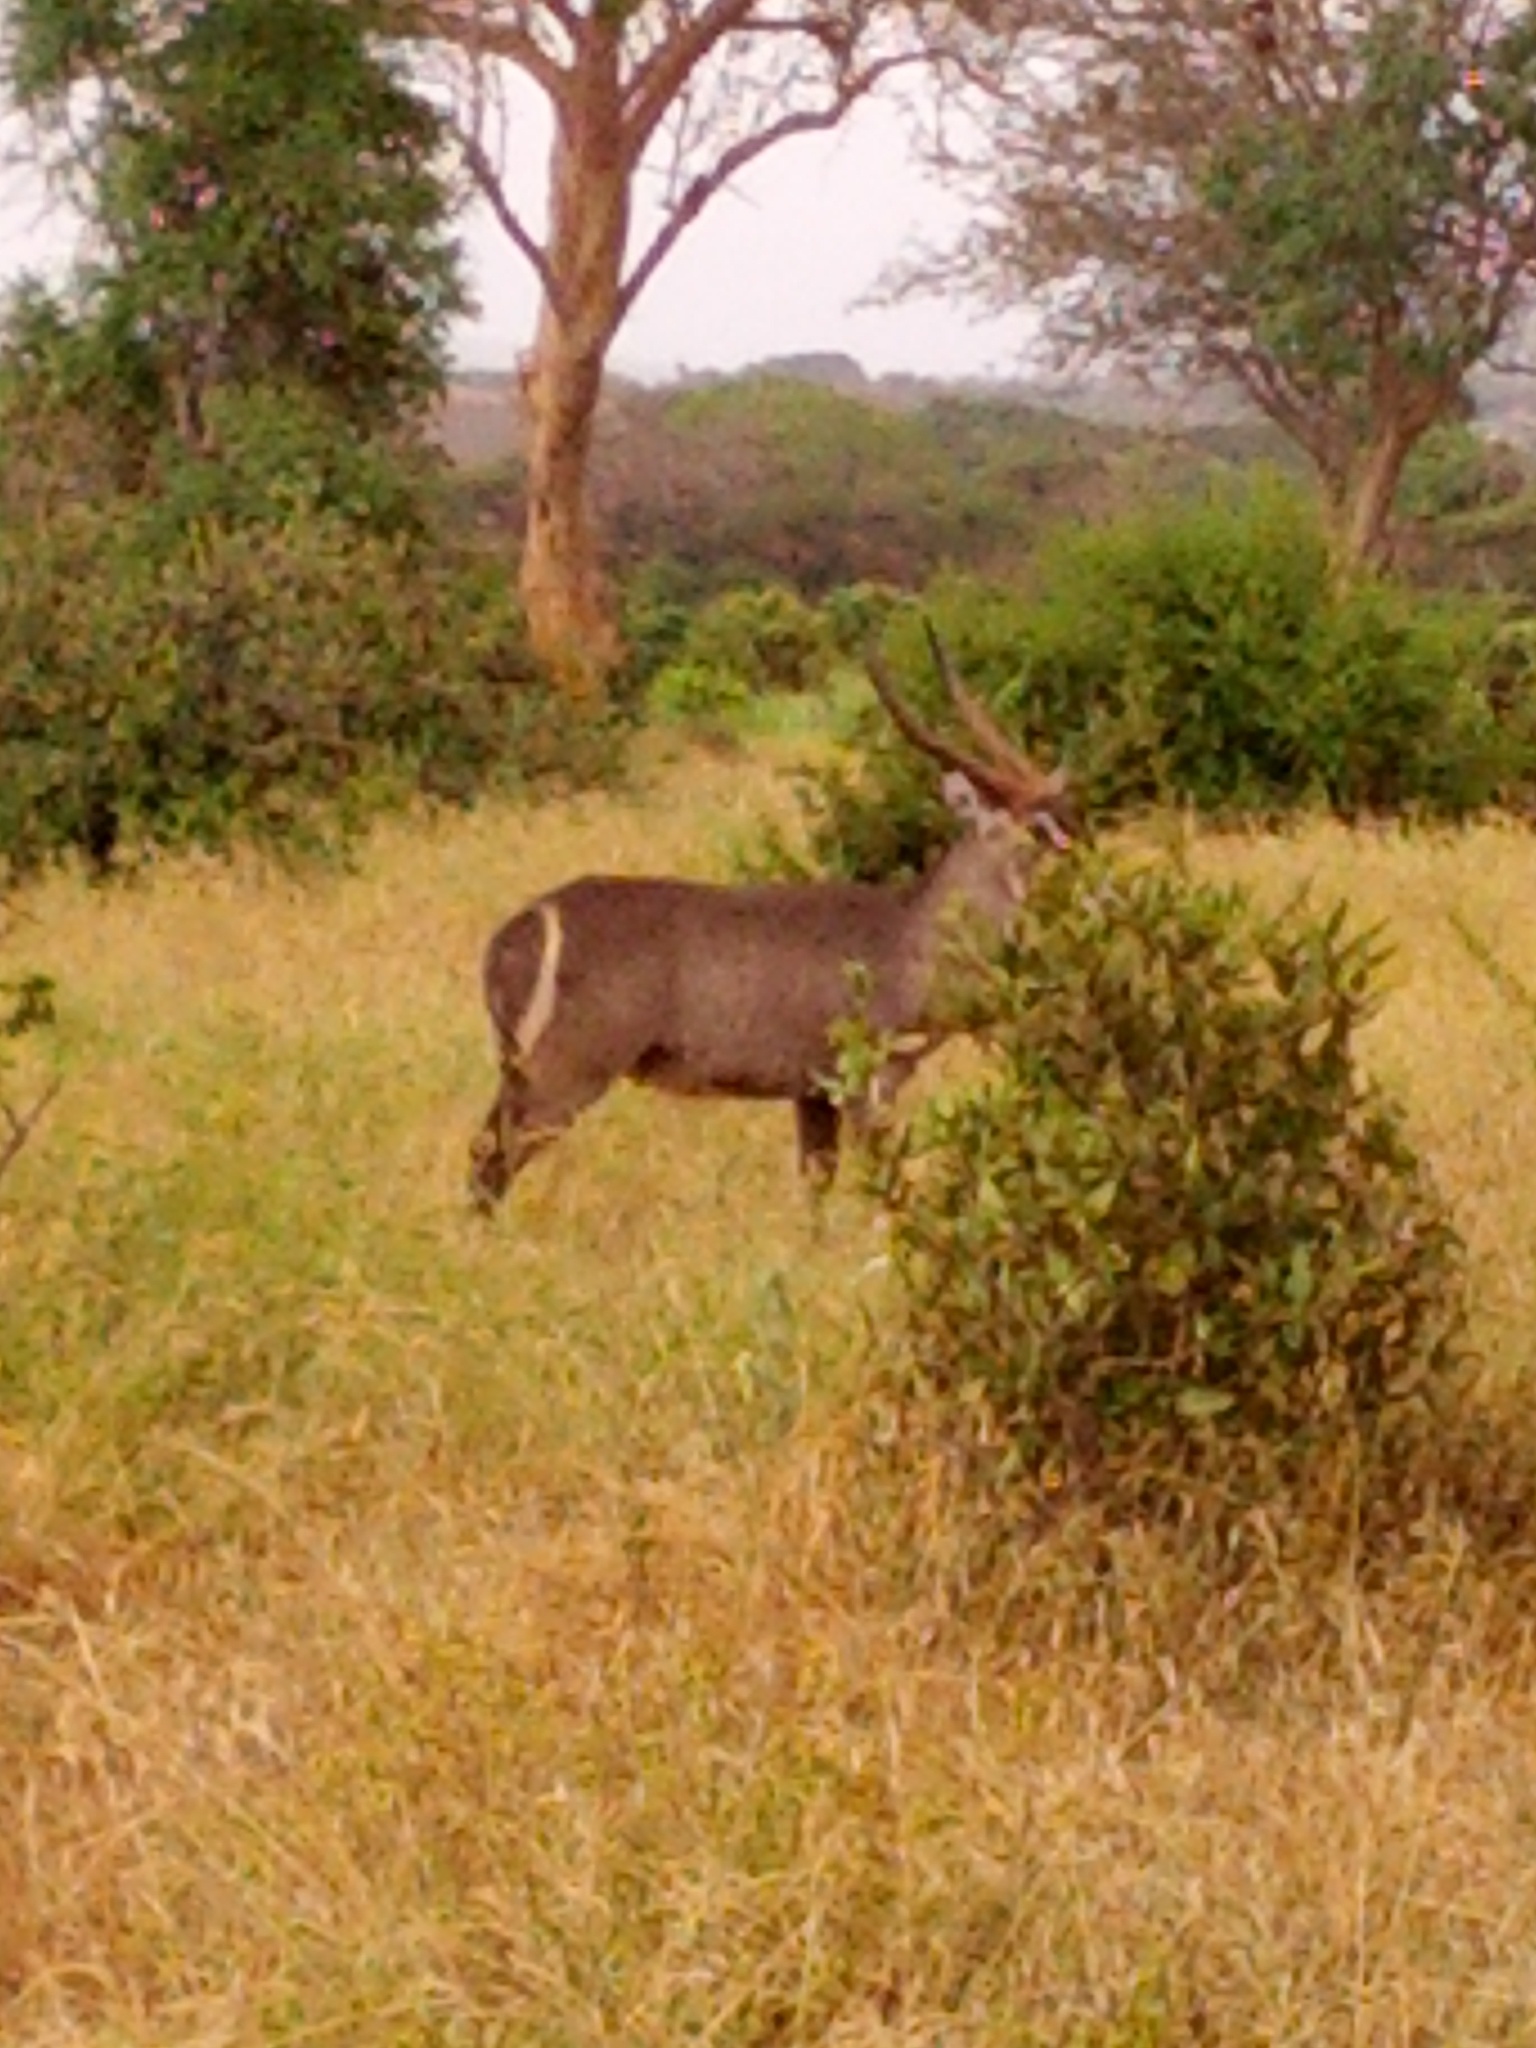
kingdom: Animalia
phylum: Chordata
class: Mammalia
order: Artiodactyla
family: Bovidae
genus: Kobus
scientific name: Kobus ellipsiprymnus
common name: Waterbuck
